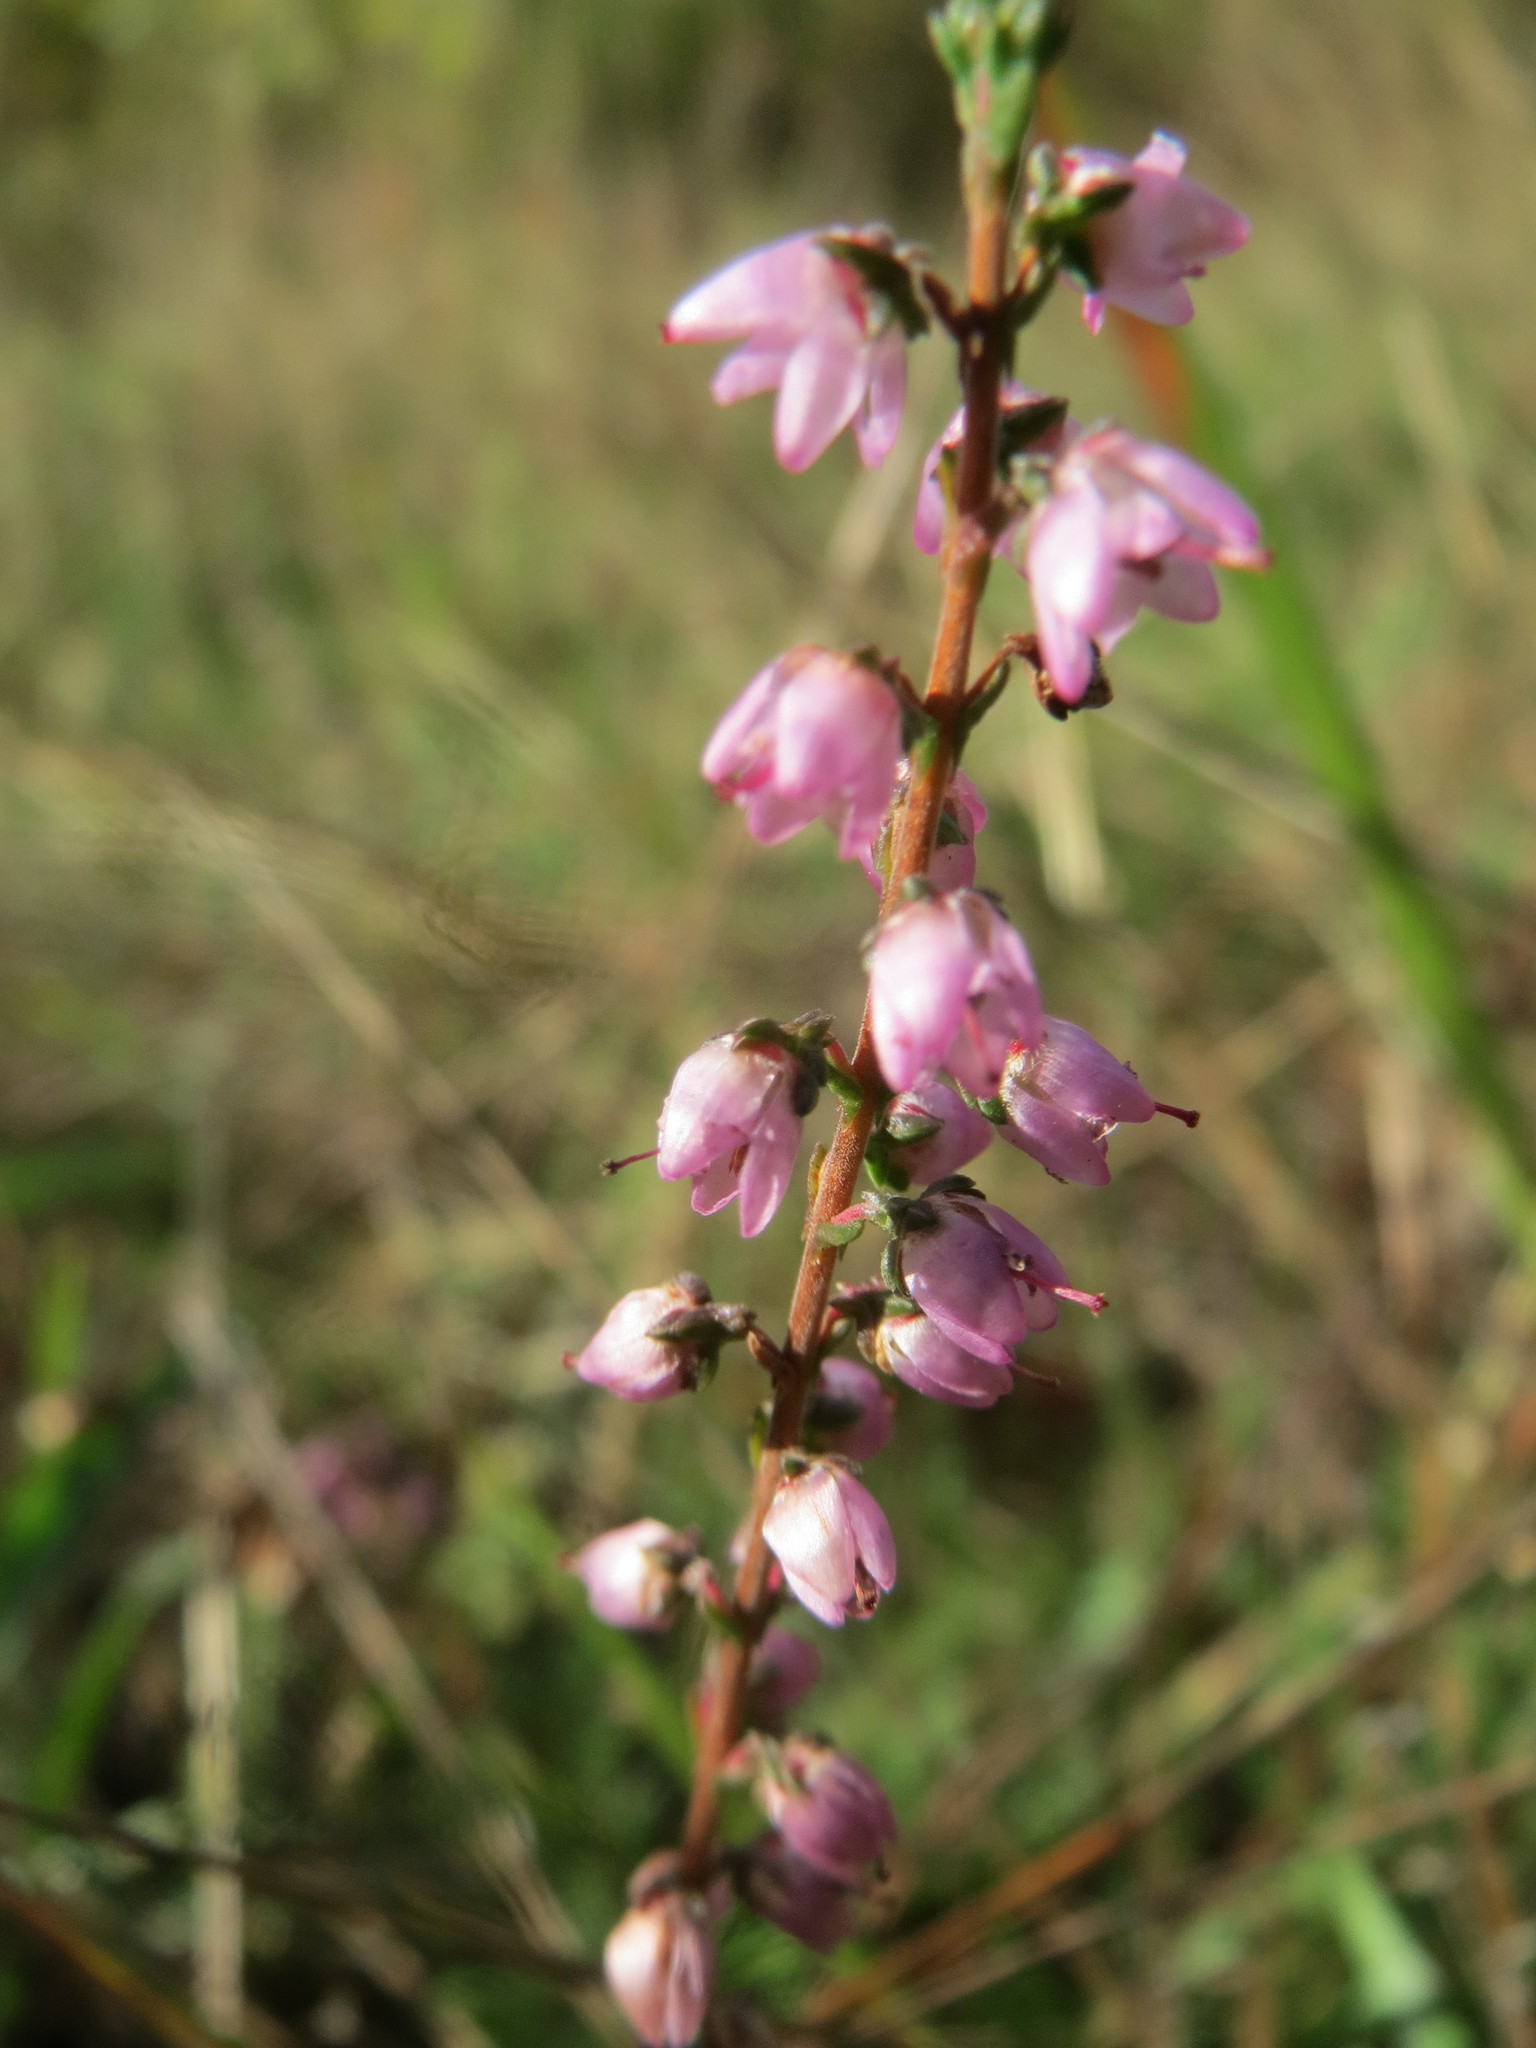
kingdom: Plantae
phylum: Tracheophyta
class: Magnoliopsida
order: Ericales
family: Ericaceae
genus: Calluna
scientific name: Calluna vulgaris
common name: Heather
